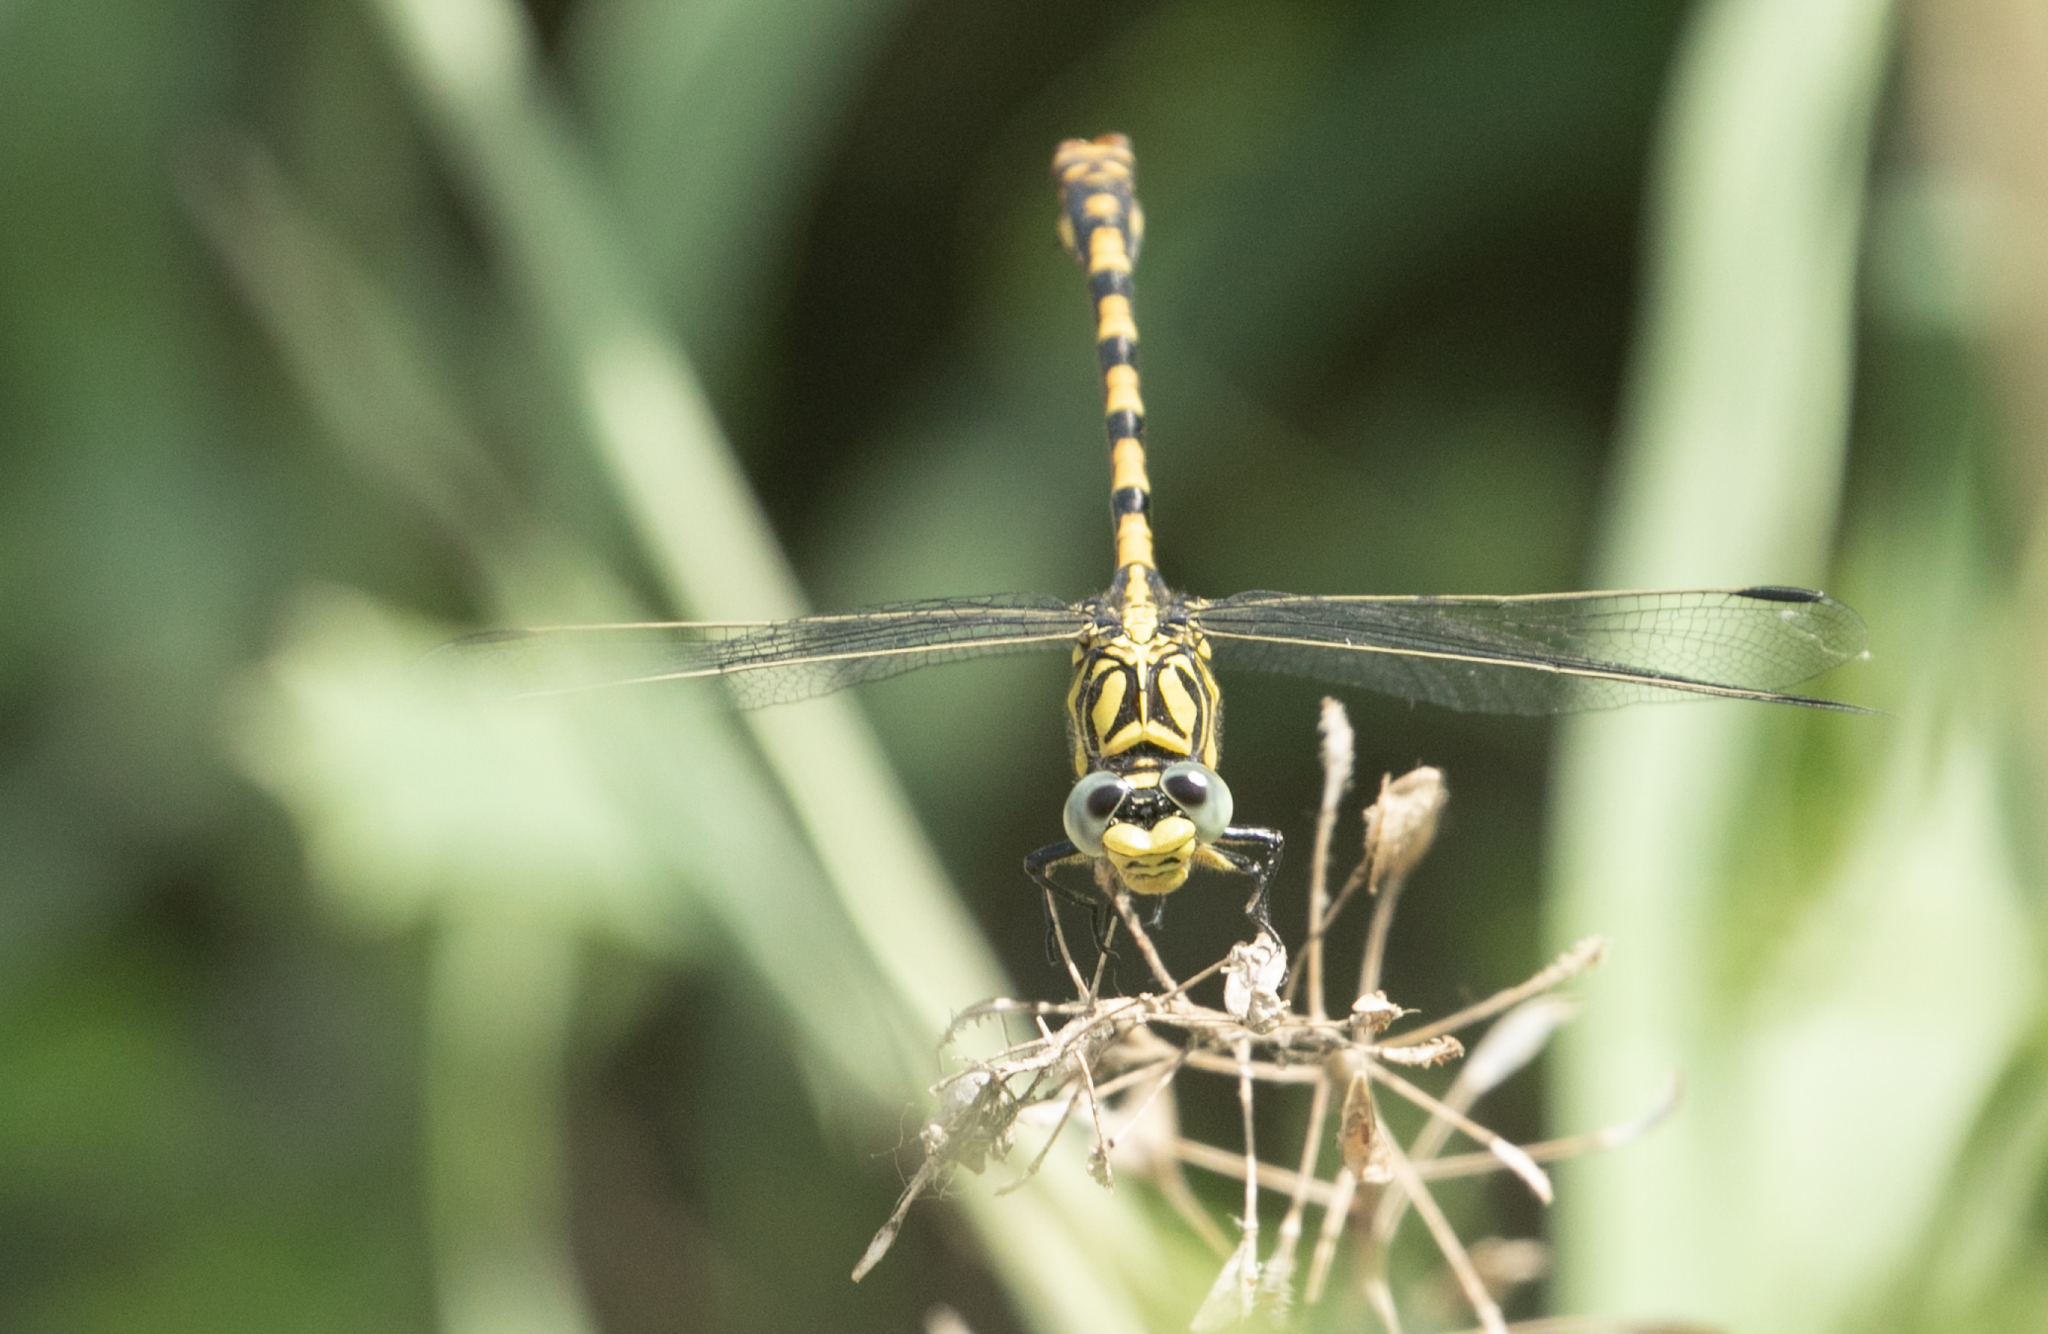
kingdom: Animalia
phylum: Arthropoda
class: Insecta
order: Odonata
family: Gomphidae
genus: Onychogomphus
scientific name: Onychogomphus forcipatus
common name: Small pincertail
